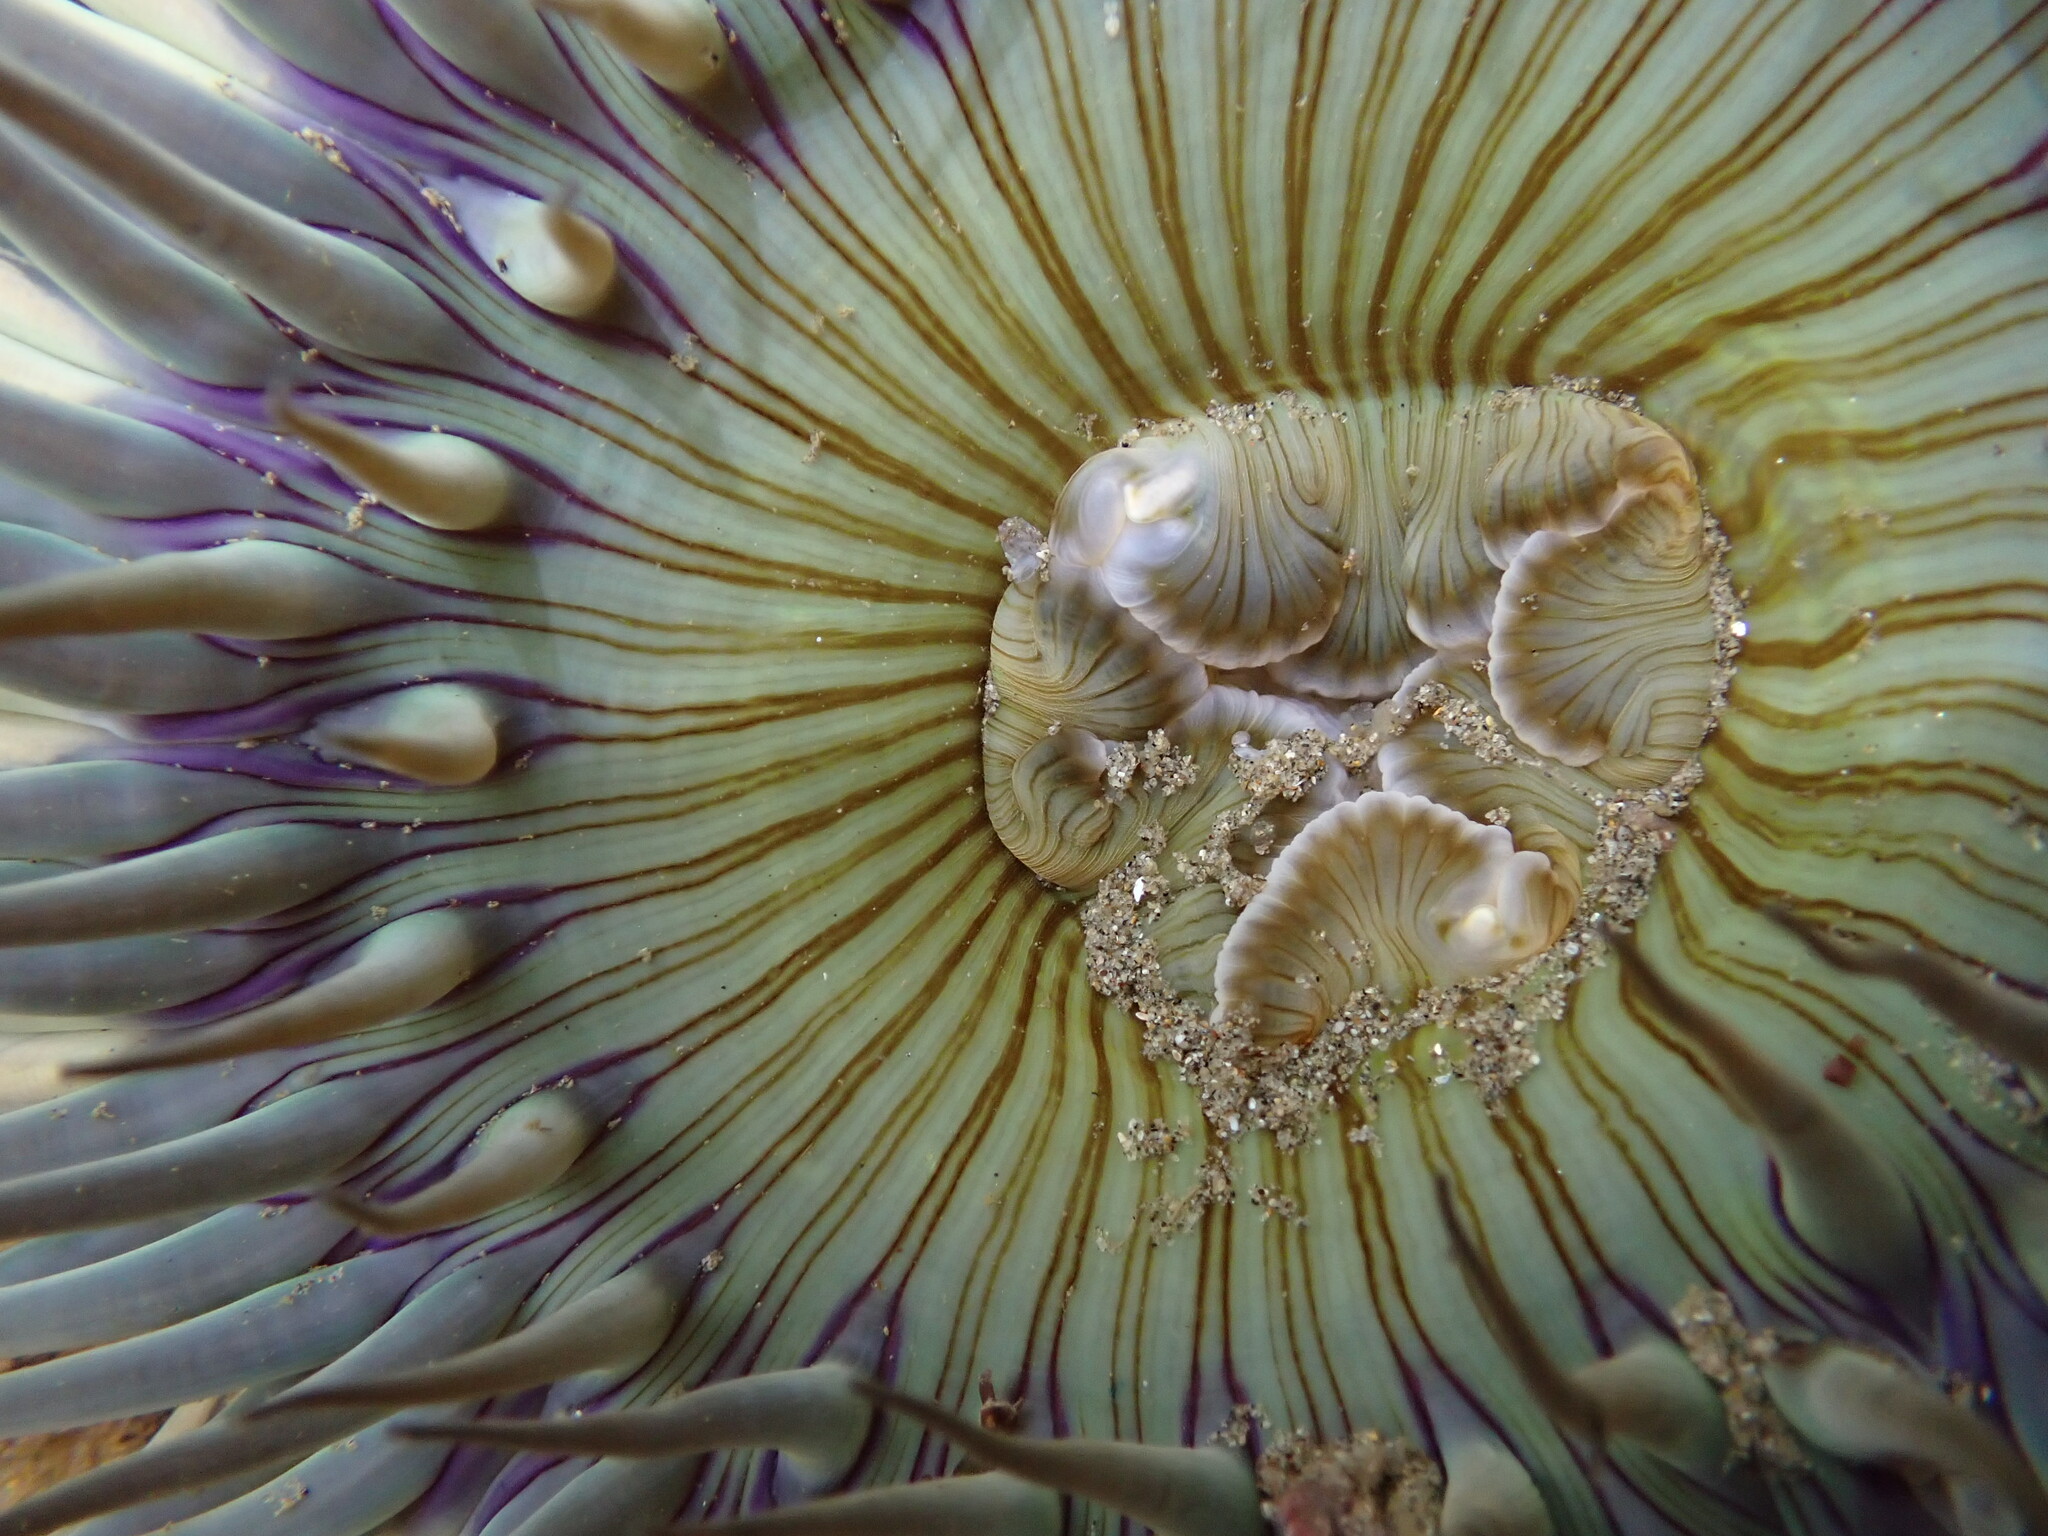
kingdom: Animalia
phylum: Cnidaria
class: Anthozoa
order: Actiniaria
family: Actiniidae
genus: Anthopleura
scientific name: Anthopleura sola
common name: Sun anemone
